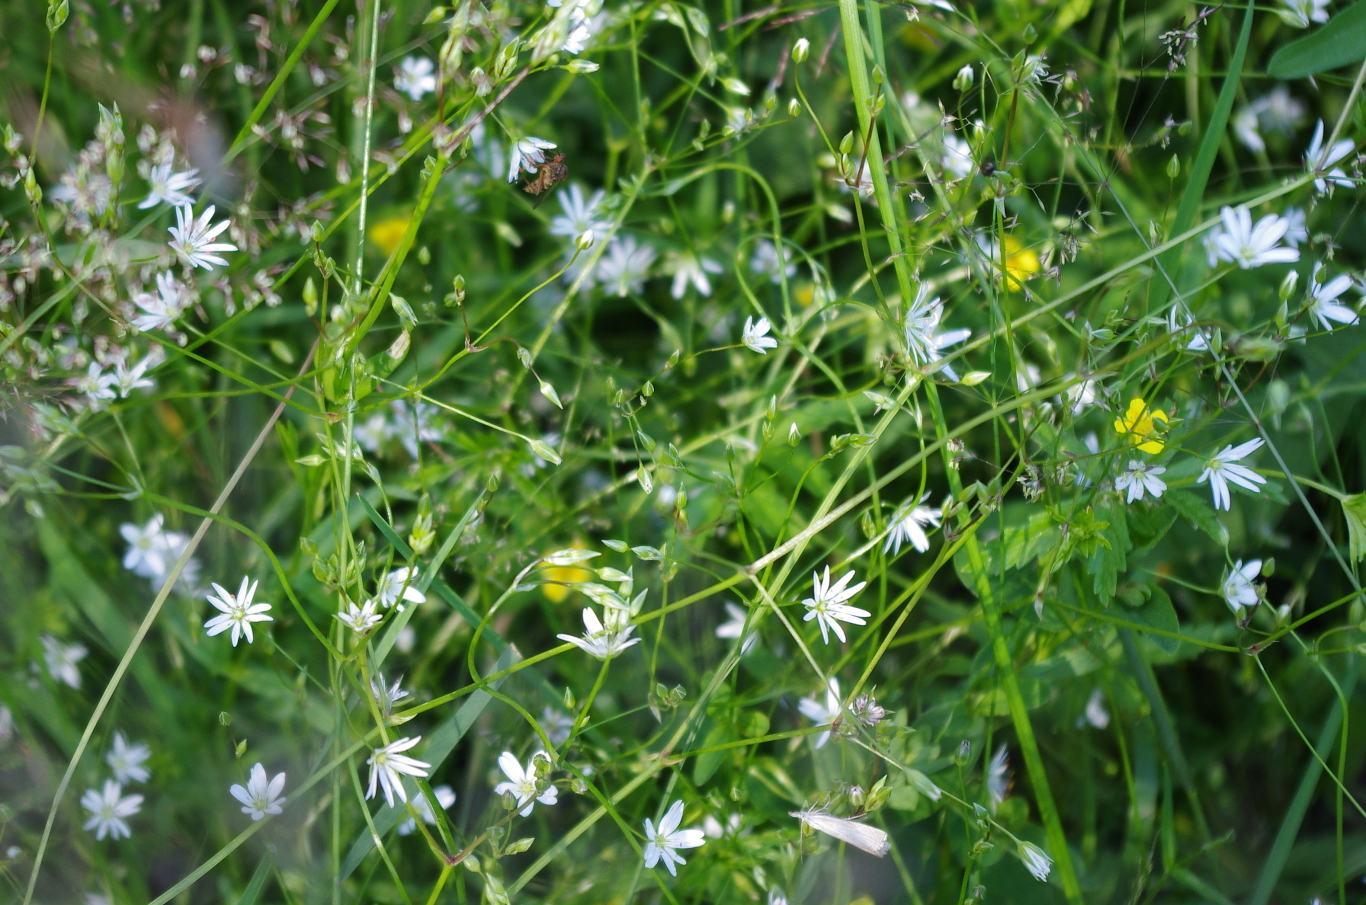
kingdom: Plantae
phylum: Tracheophyta
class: Magnoliopsida
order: Caryophyllales
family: Caryophyllaceae
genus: Stellaria
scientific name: Stellaria graminea
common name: Grass-like starwort
